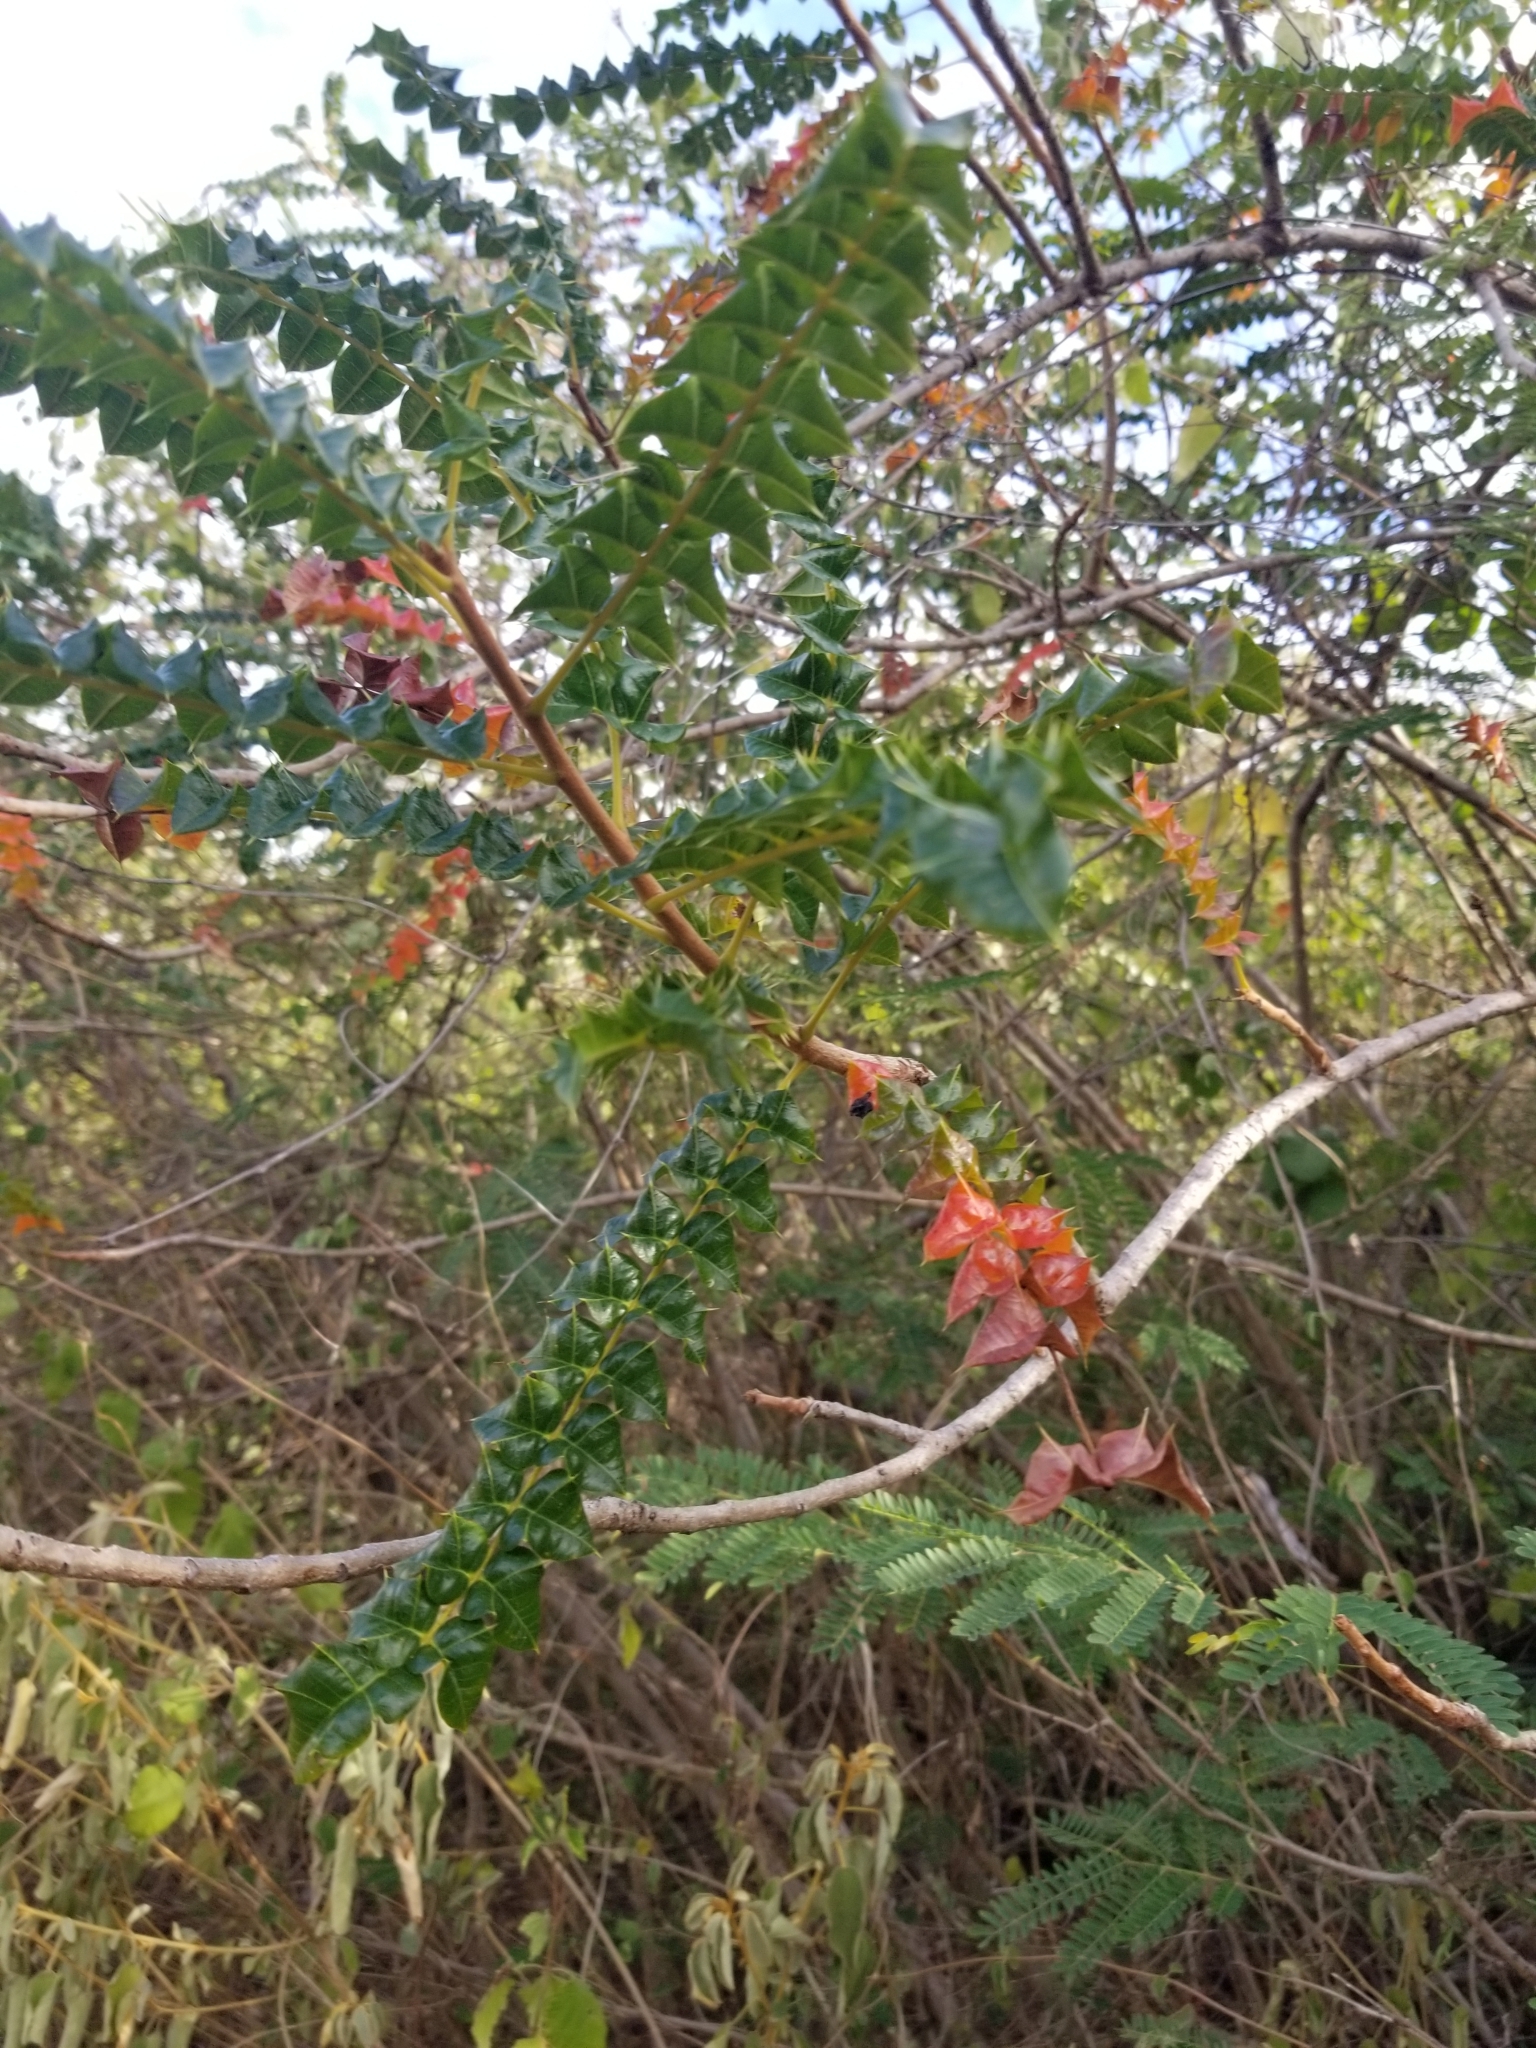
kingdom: Plantae
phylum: Tracheophyta
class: Magnoliopsida
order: Sapindales
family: Anacardiaceae
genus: Comocladia
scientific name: Comocladia dodonaea
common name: Poison ash
